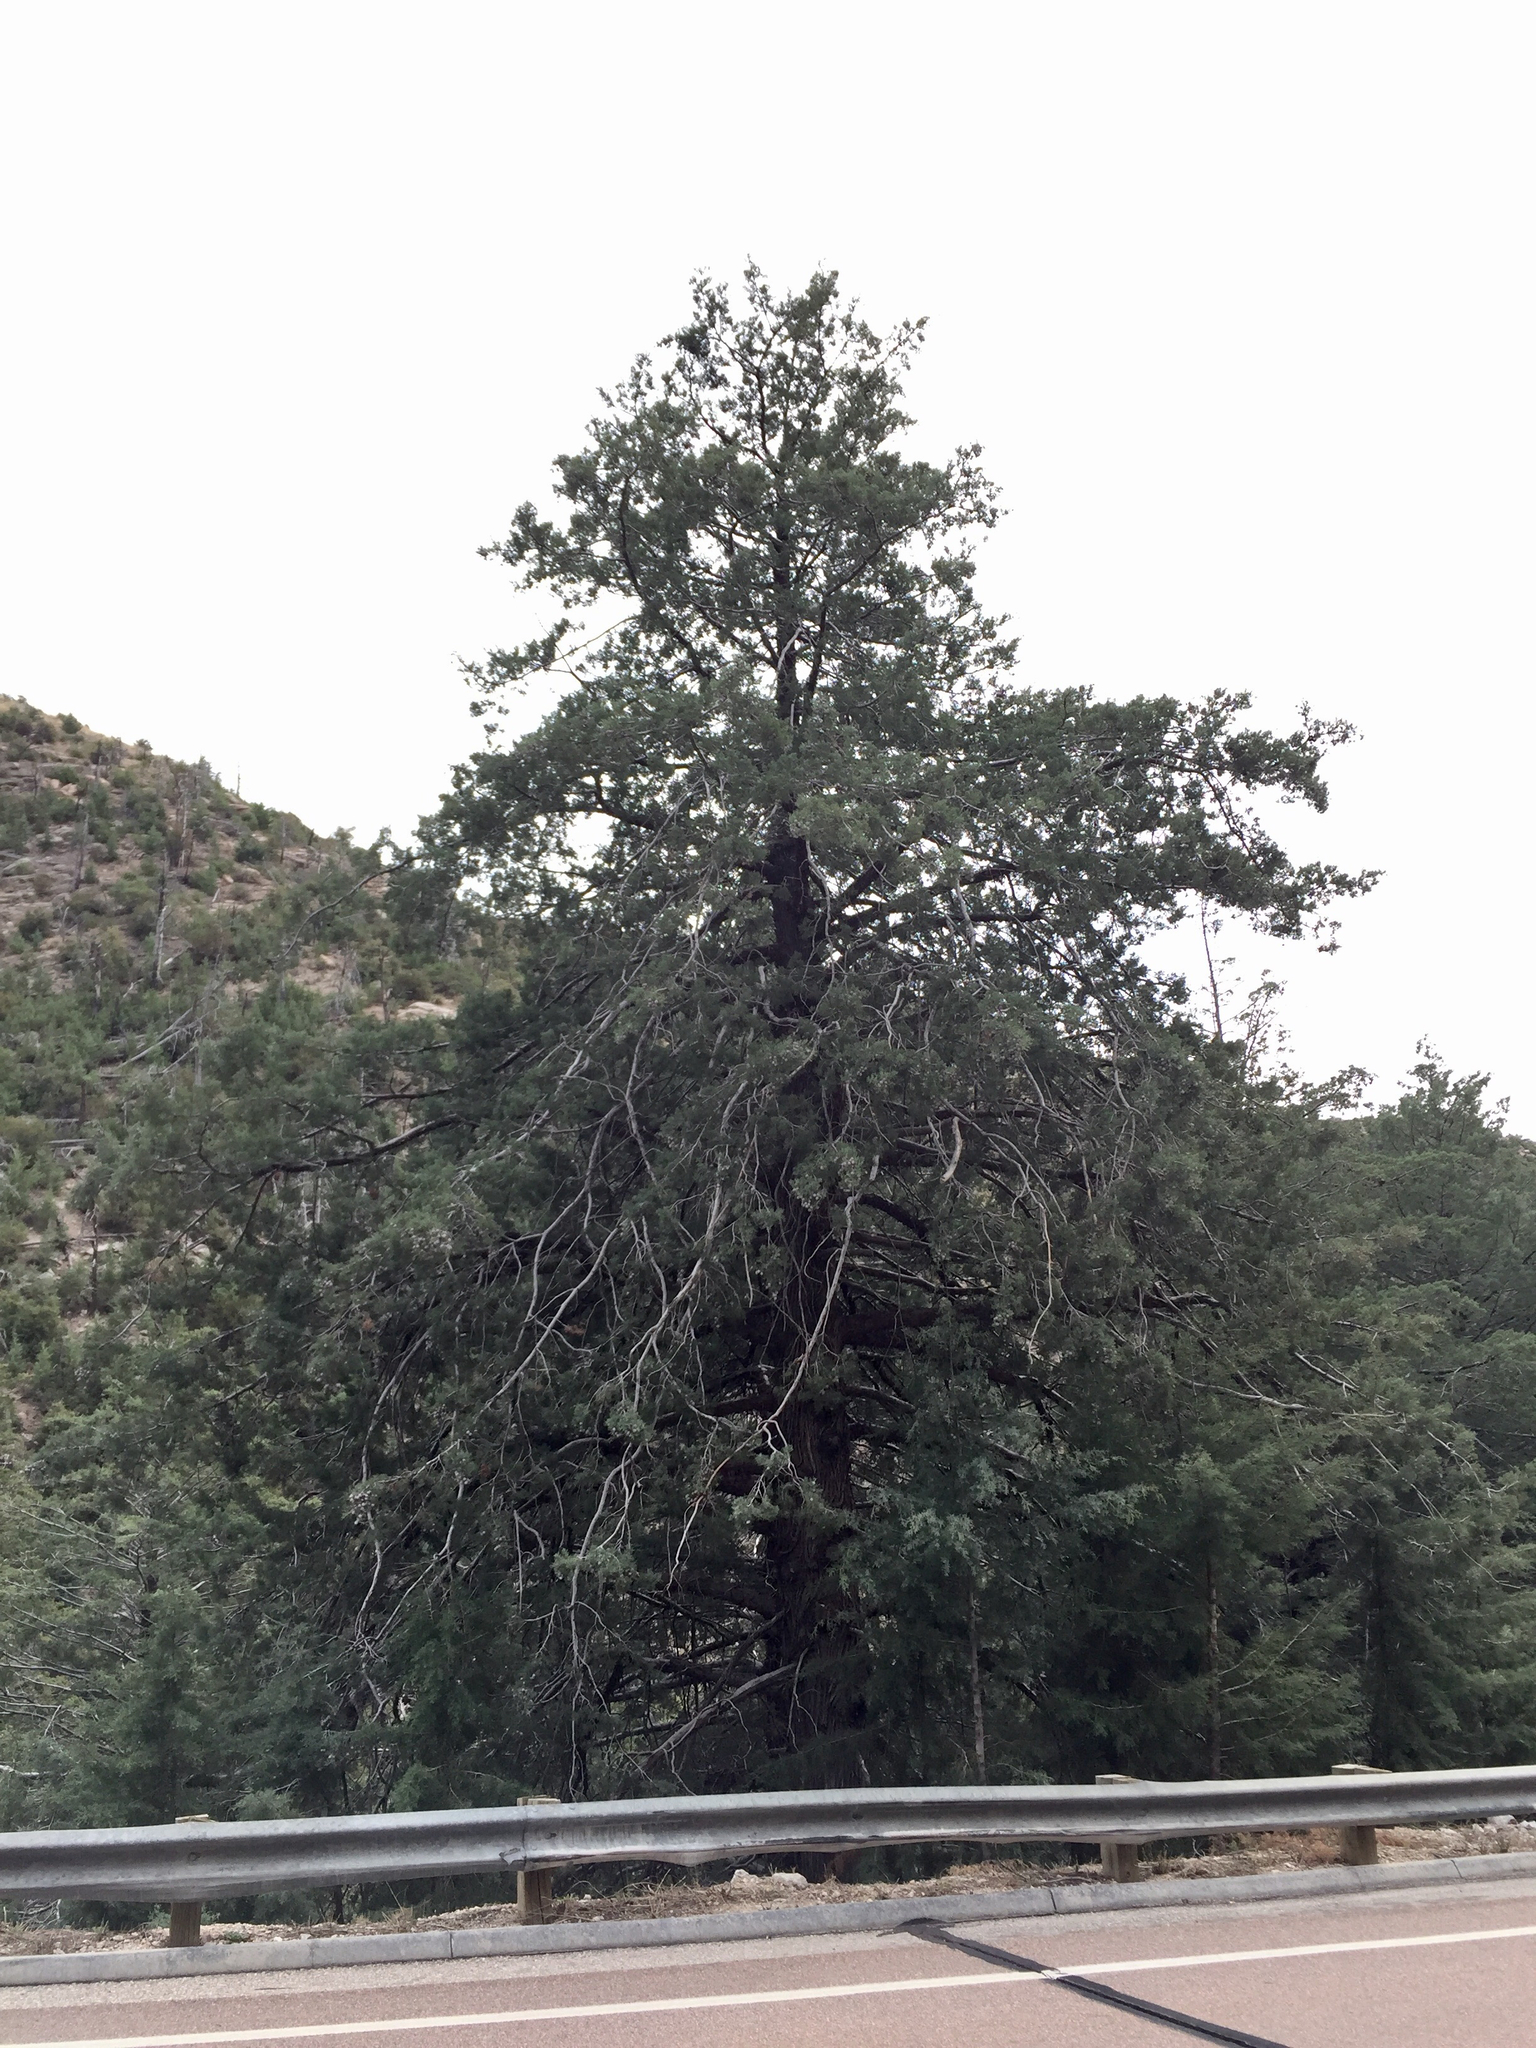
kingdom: Plantae
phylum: Tracheophyta
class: Pinopsida
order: Pinales
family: Cupressaceae
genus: Cupressus
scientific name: Cupressus arizonica
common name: Arizona cypress
